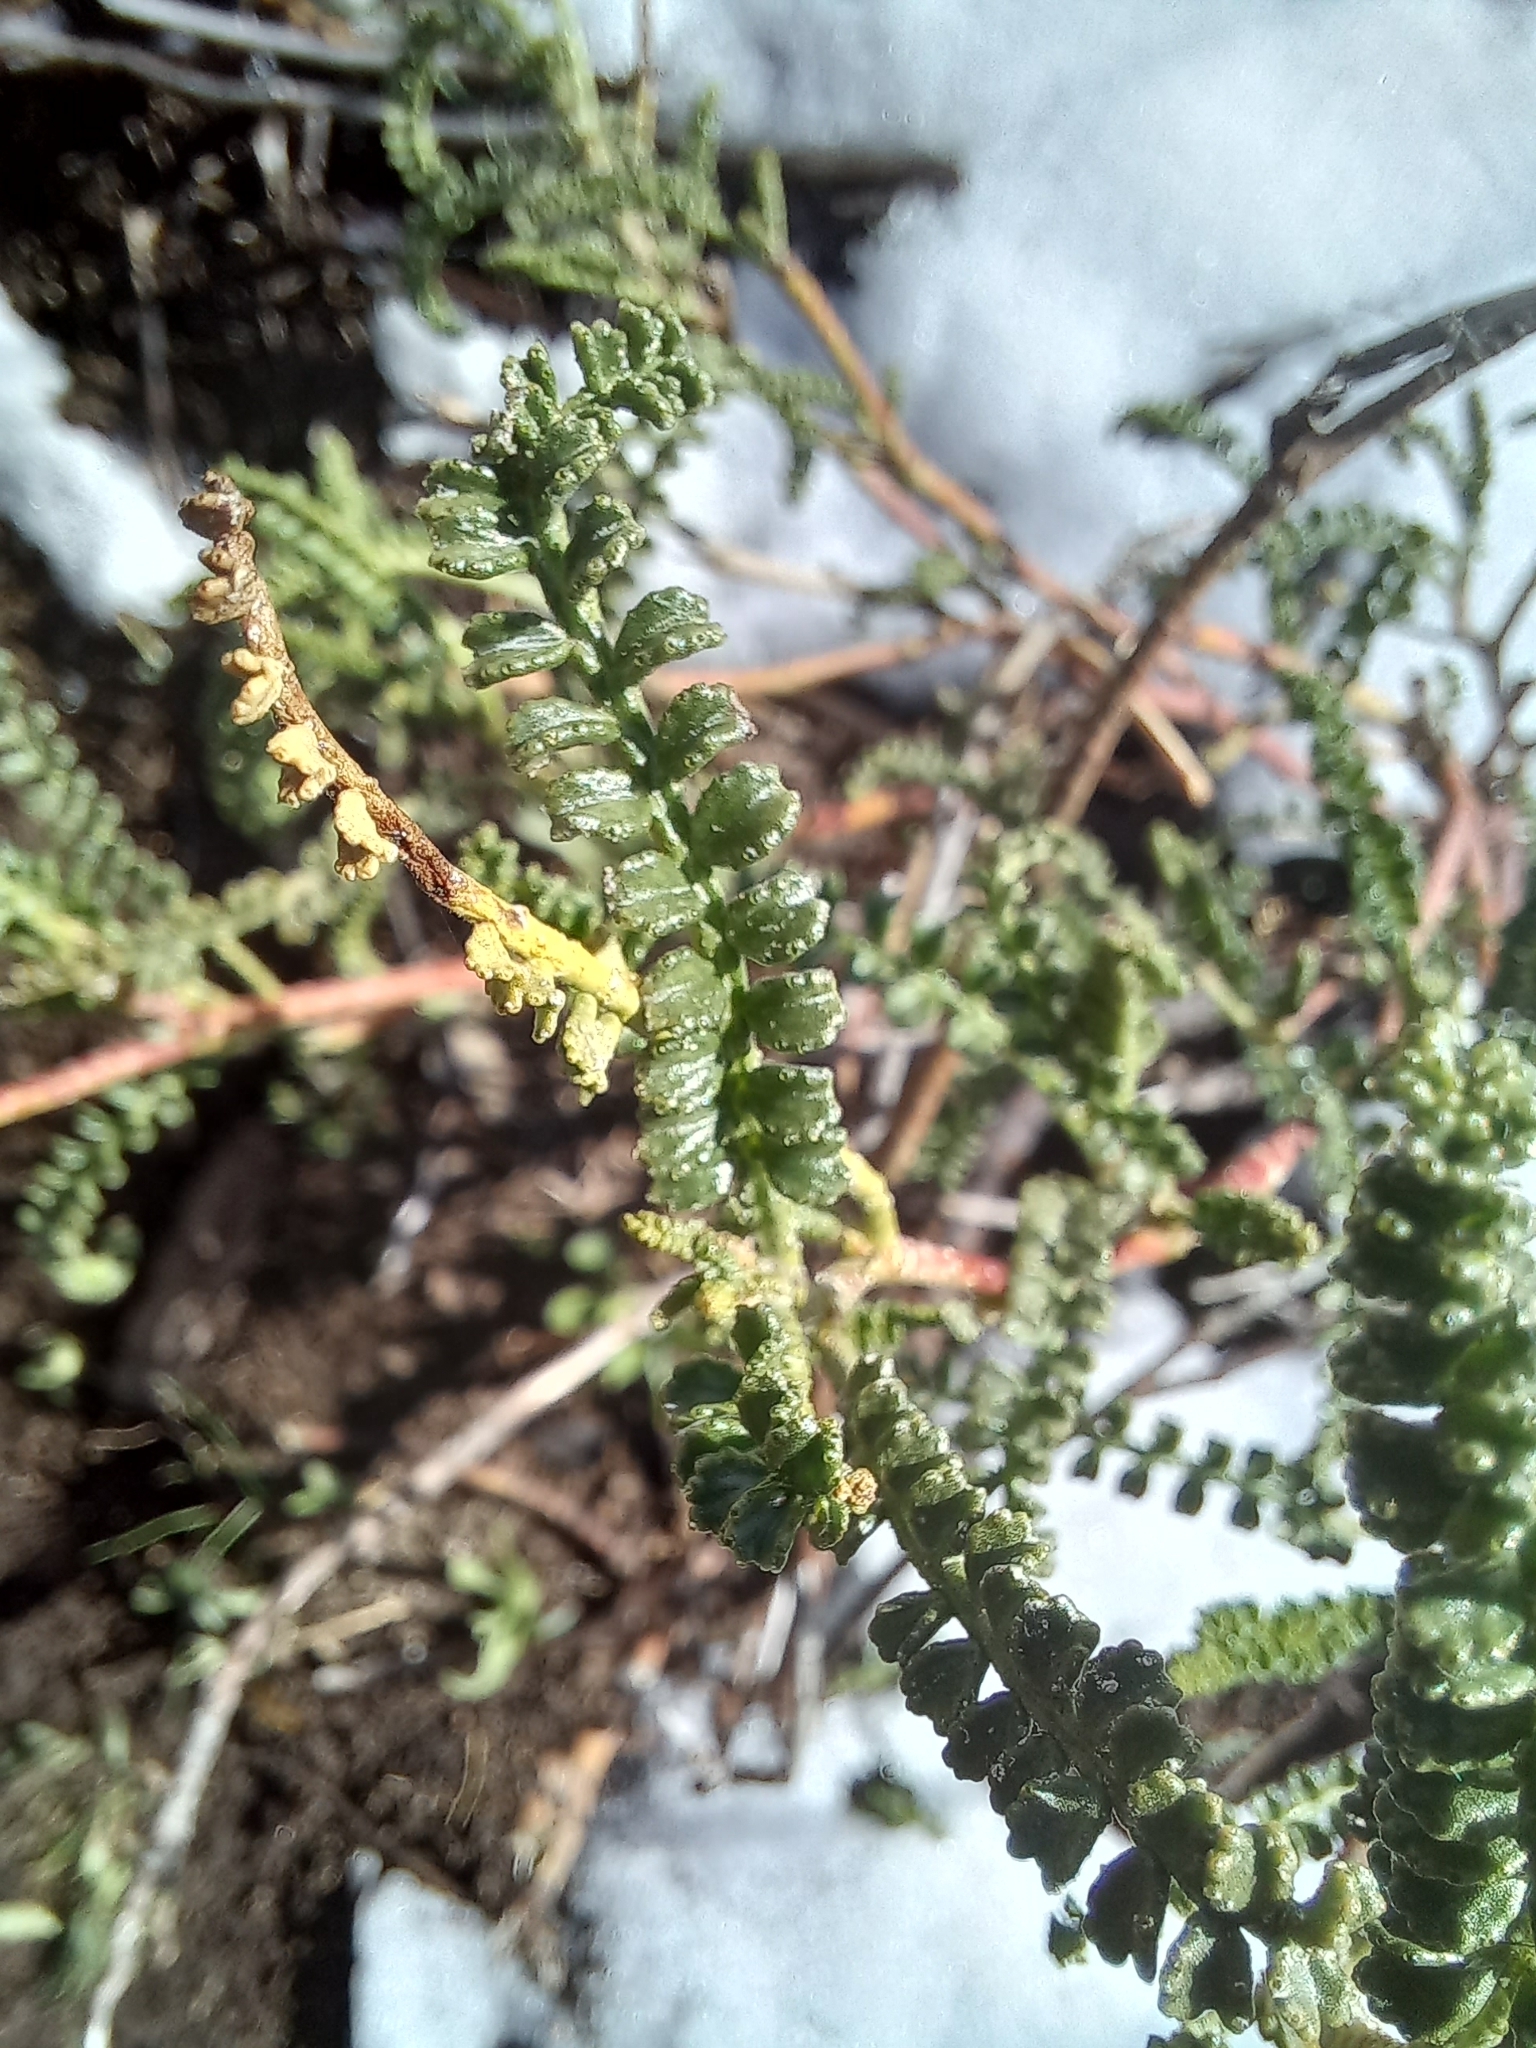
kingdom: Plantae
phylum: Tracheophyta
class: Magnoliopsida
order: Fabales
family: Fabaceae
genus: Adesmia
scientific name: Adesmia boronioides
